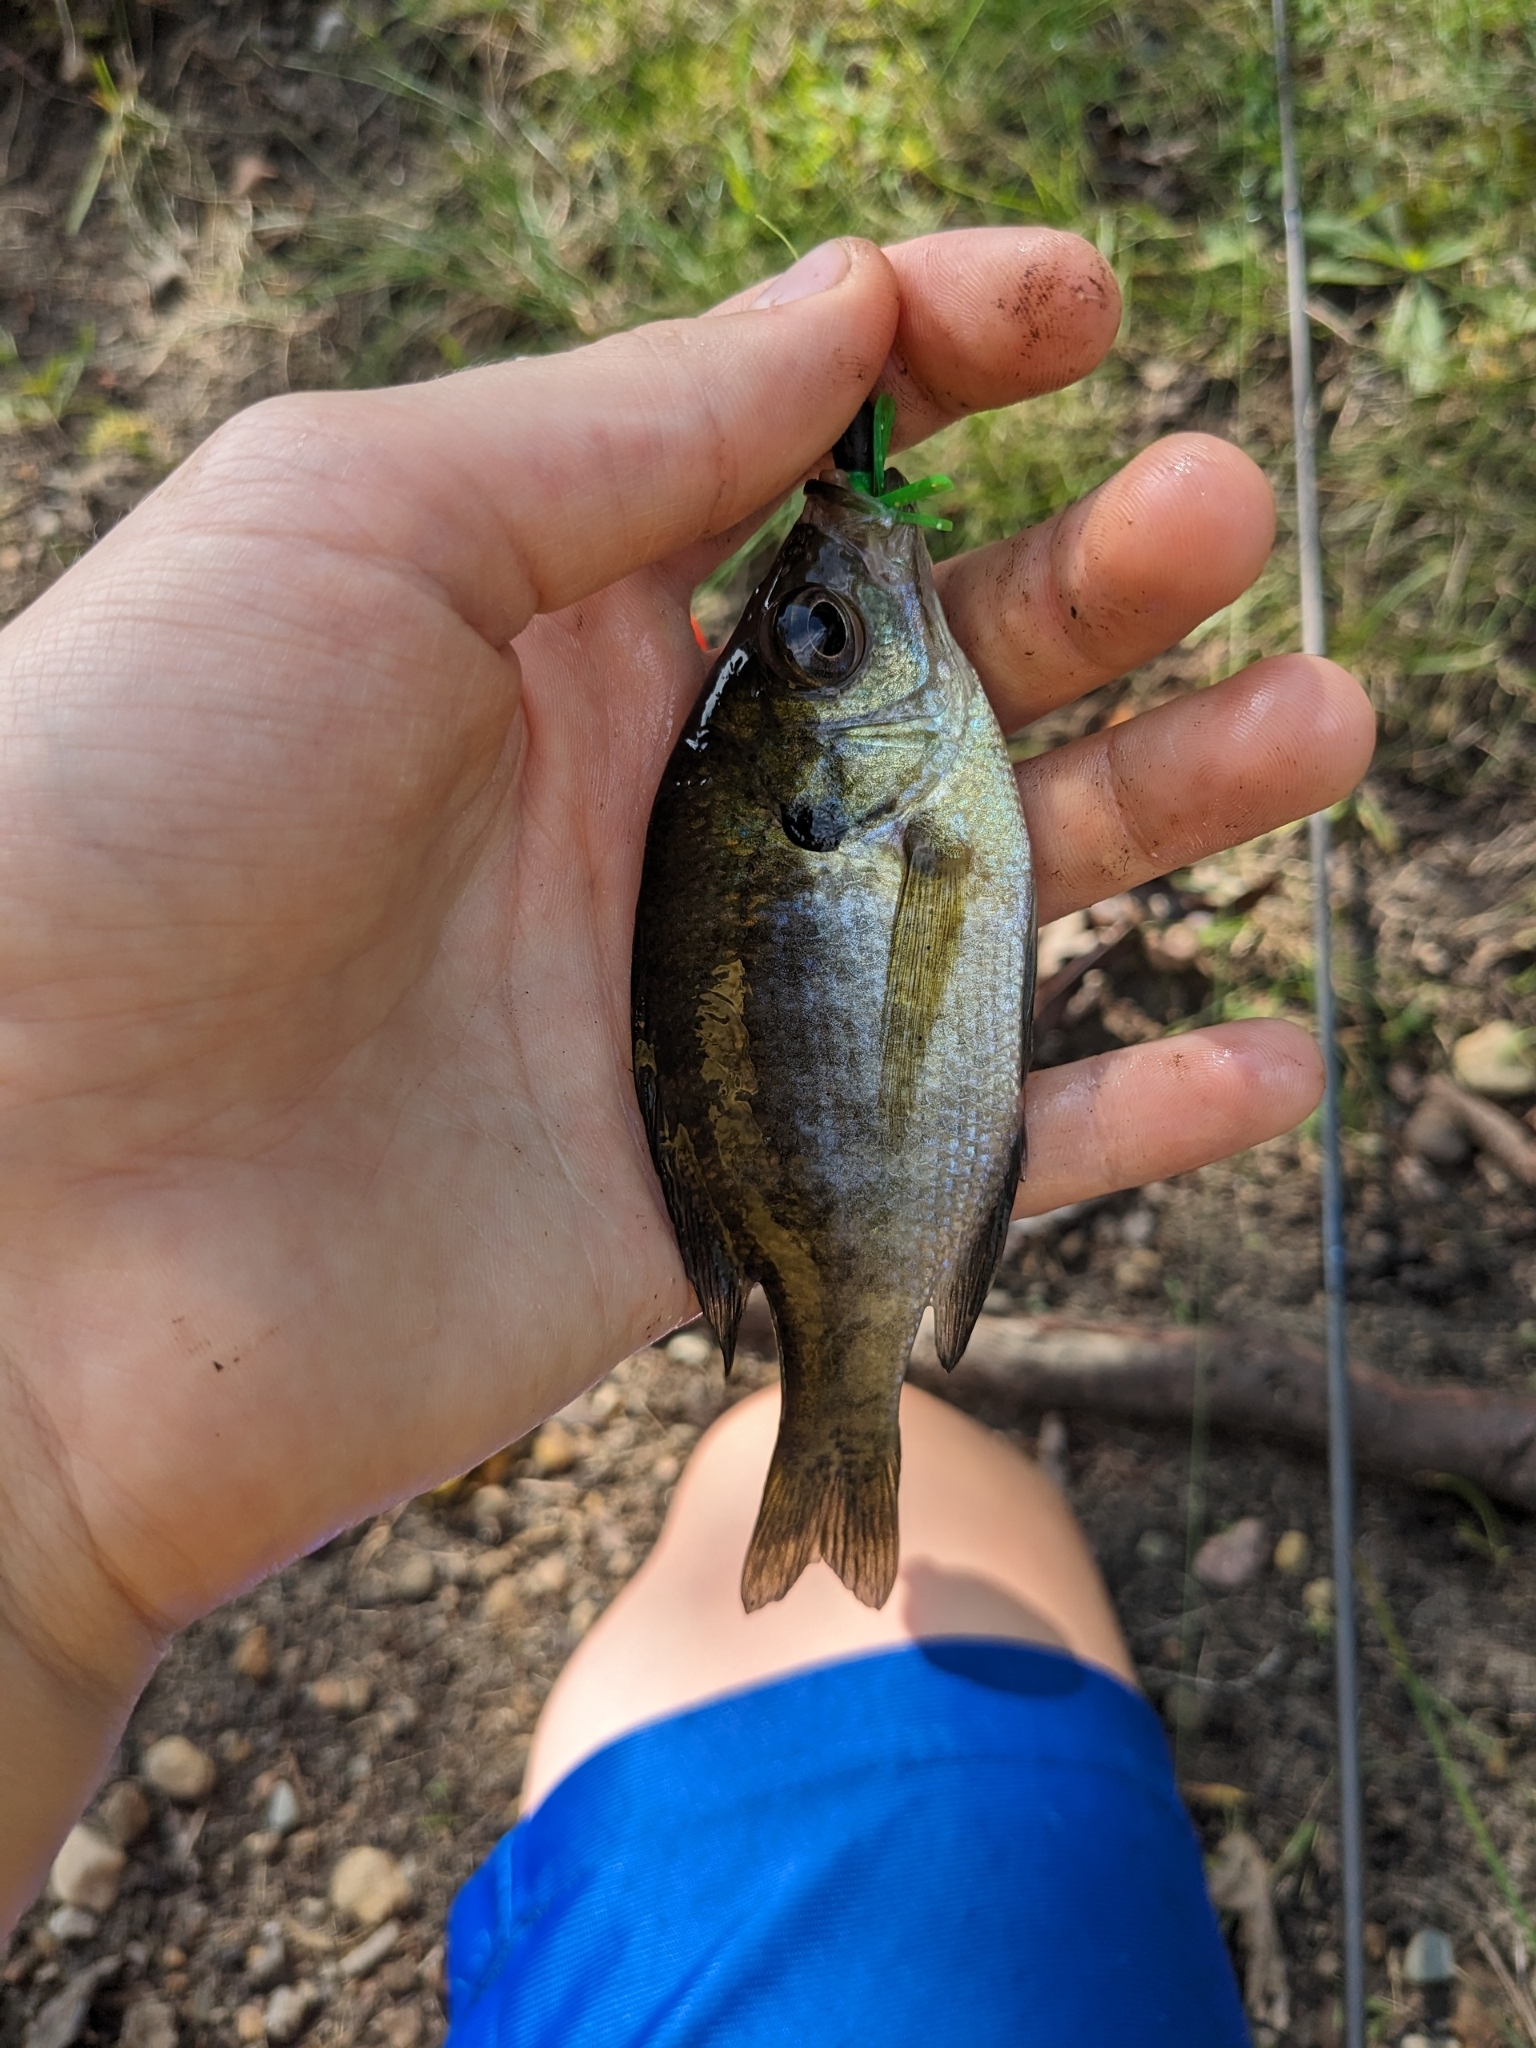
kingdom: Animalia
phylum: Chordata
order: Perciformes
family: Centrarchidae
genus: Lepomis
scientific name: Lepomis macrochirus
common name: Bluegill
